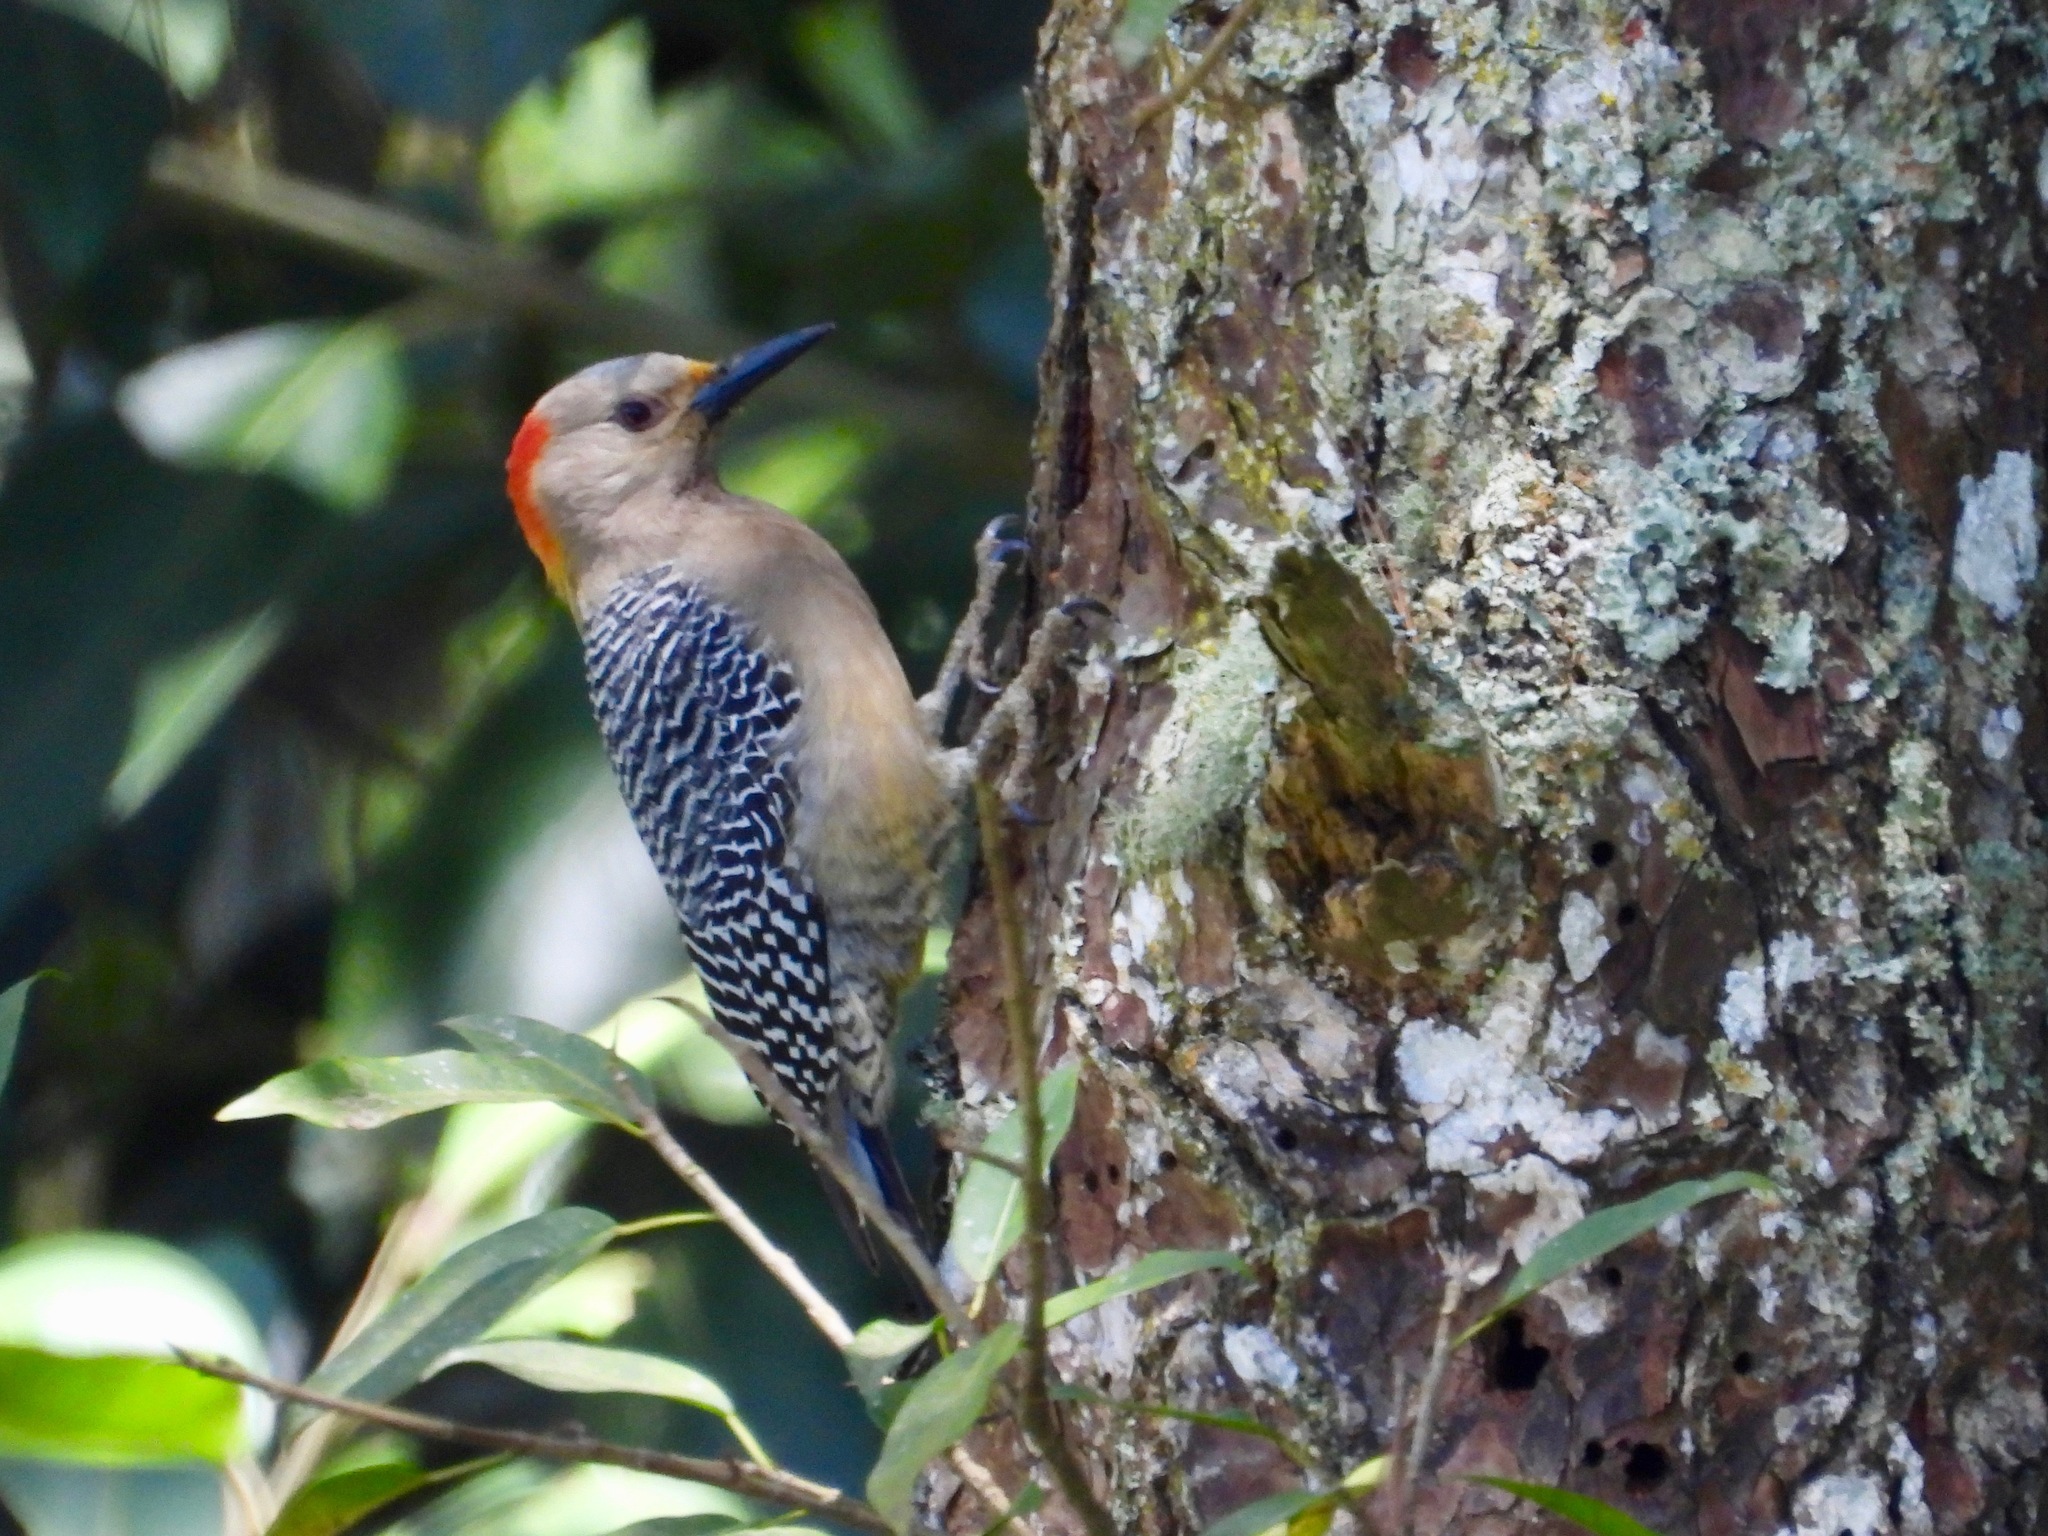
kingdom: Animalia
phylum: Chordata
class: Aves
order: Piciformes
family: Picidae
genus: Melanerpes
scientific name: Melanerpes aurifrons
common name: Golden-fronted woodpecker
